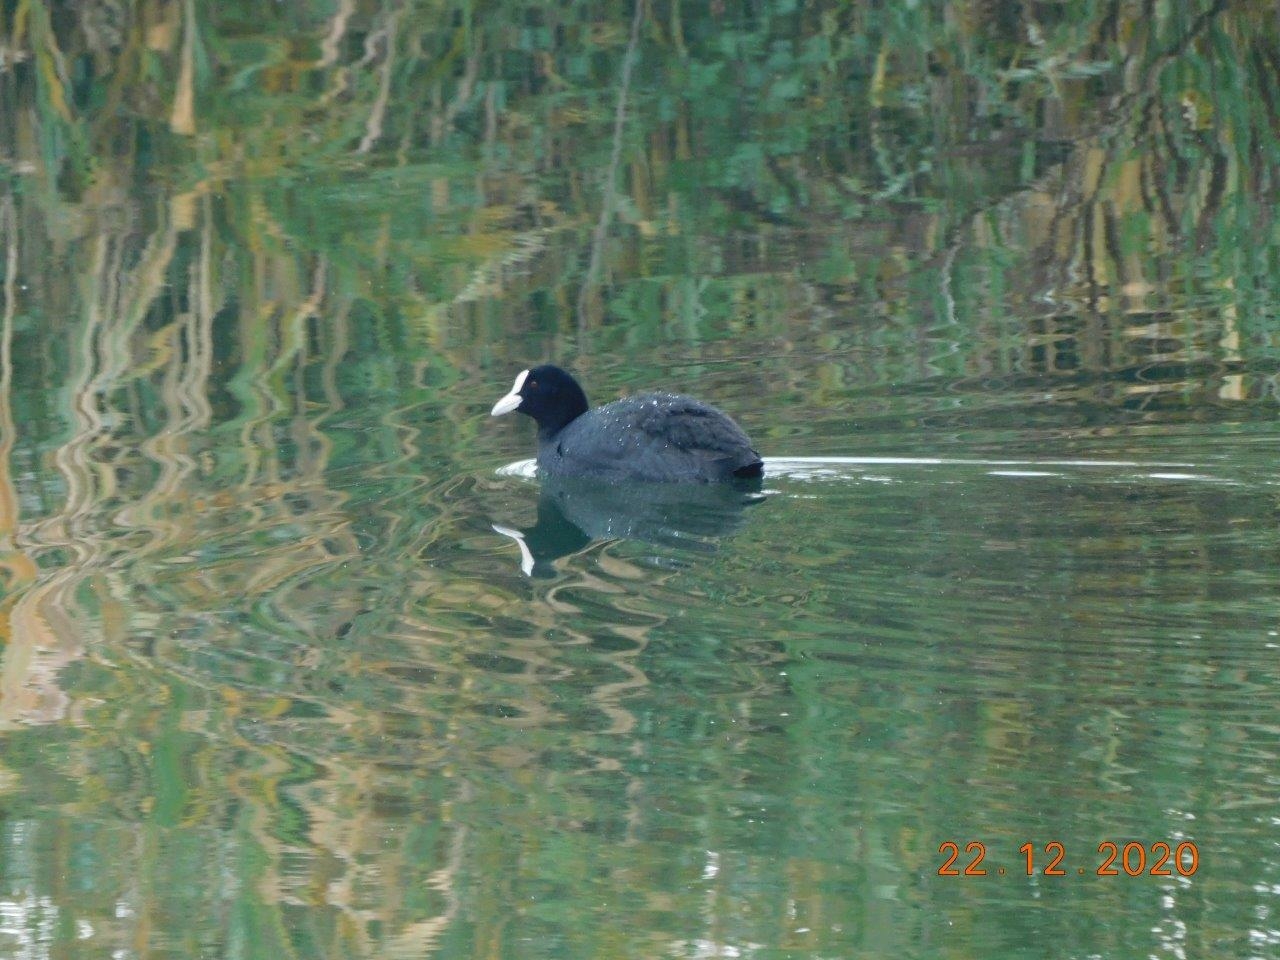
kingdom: Animalia
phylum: Chordata
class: Aves
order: Gruiformes
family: Rallidae
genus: Fulica
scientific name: Fulica atra
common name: Eurasian coot
